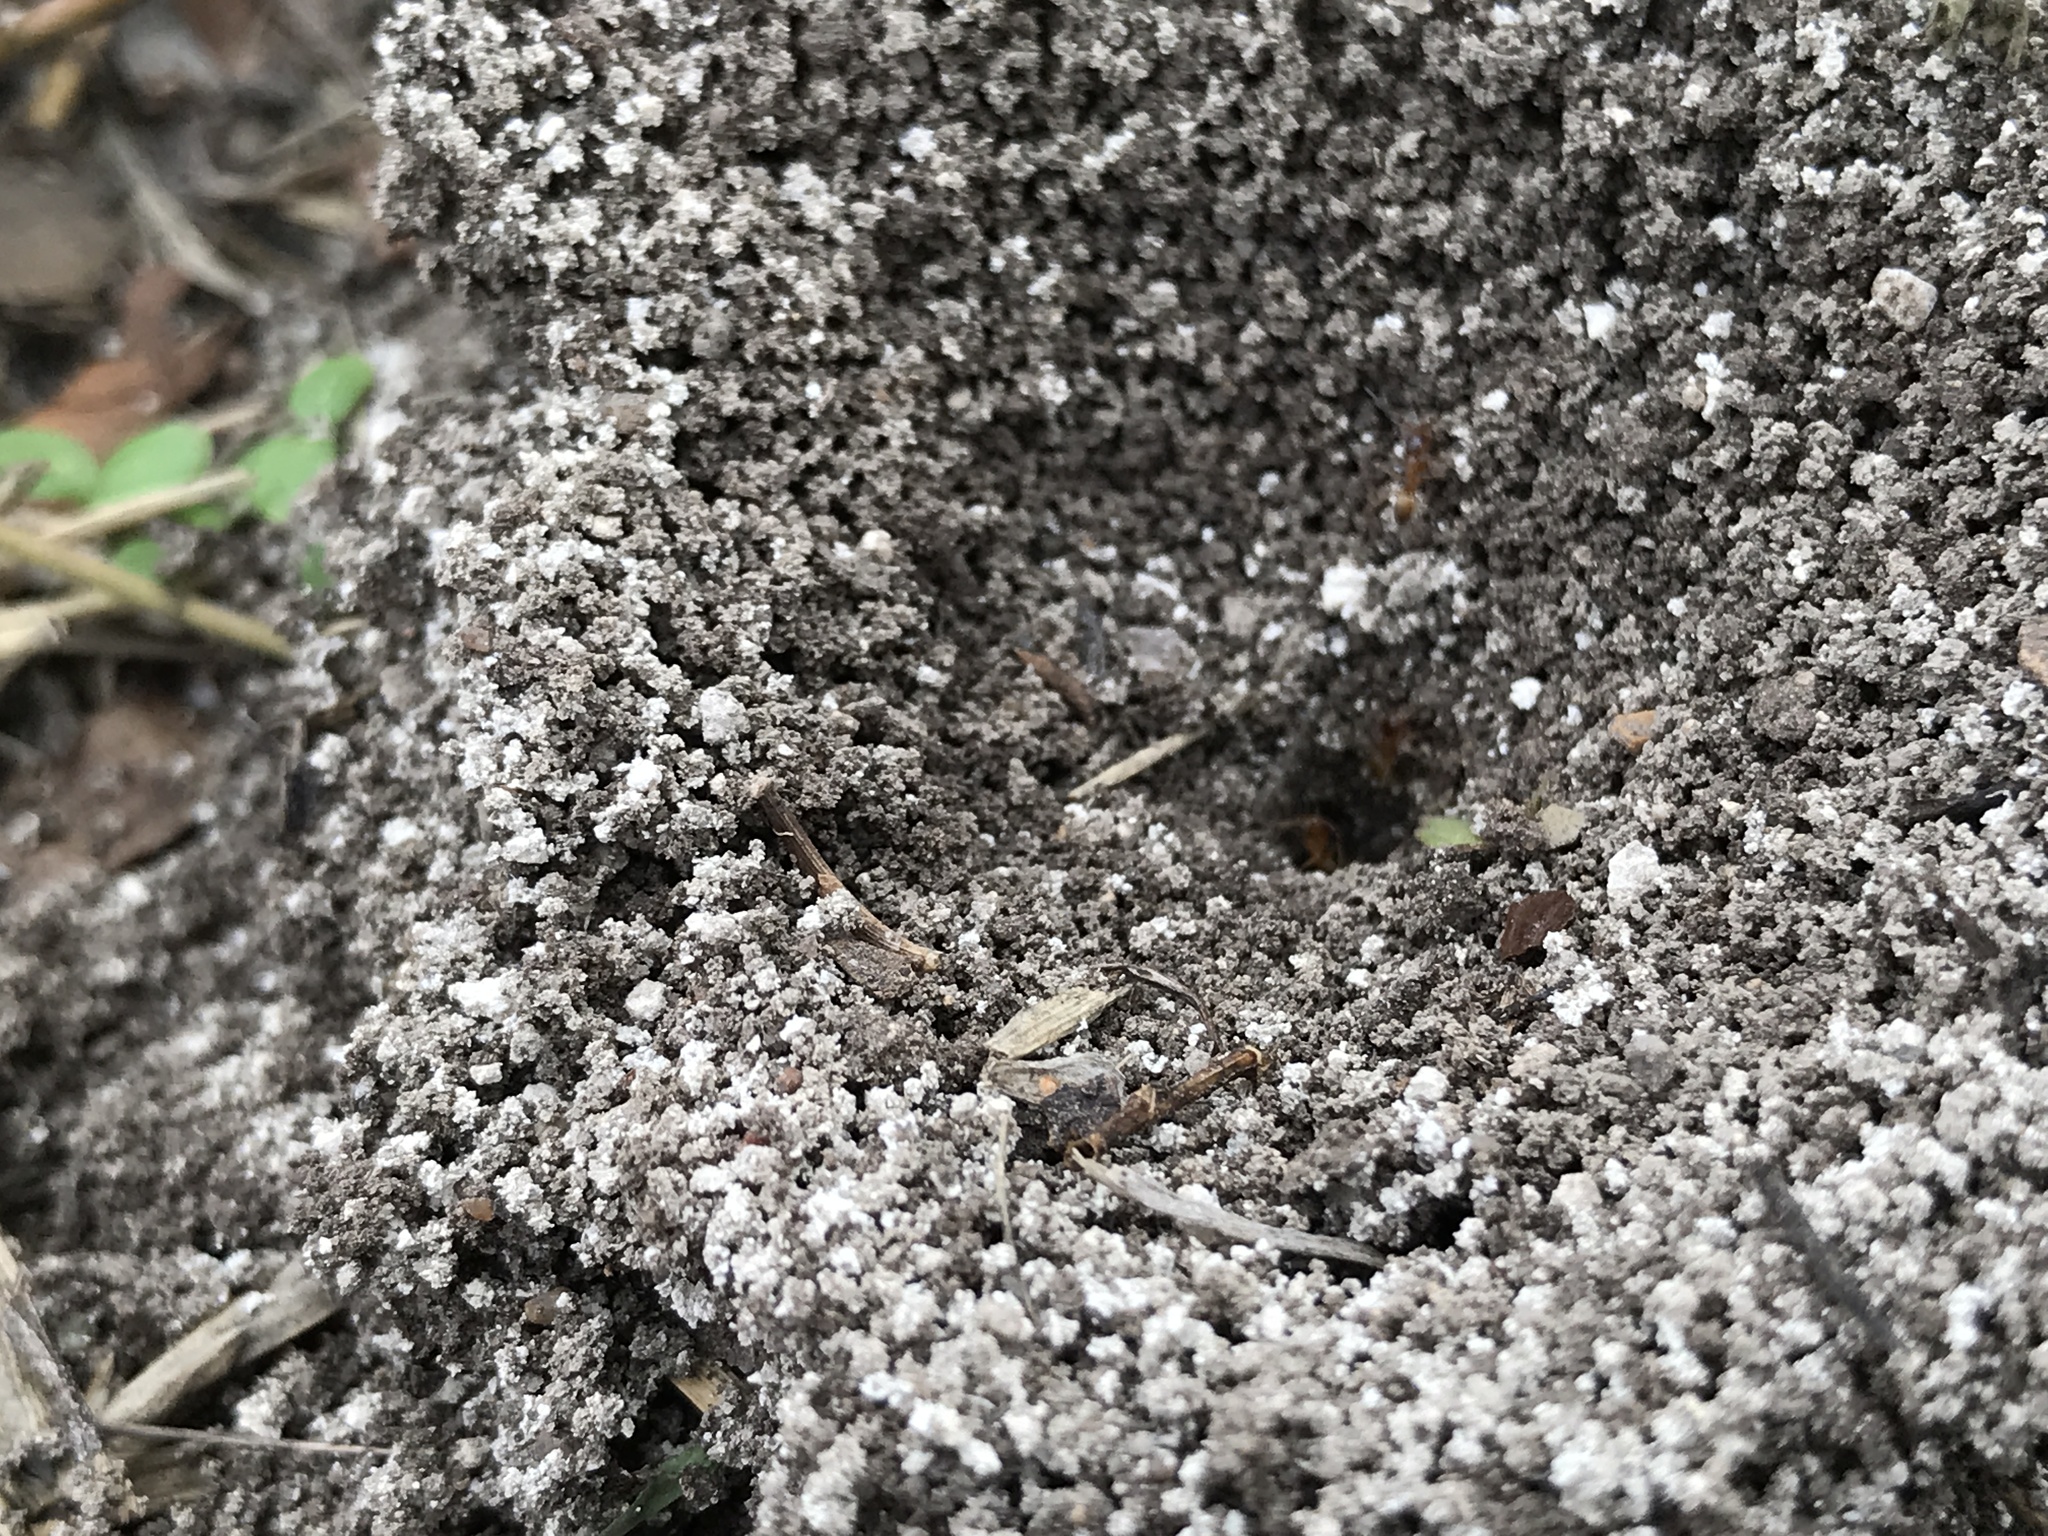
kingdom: Animalia
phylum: Arthropoda
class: Insecta
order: Hymenoptera
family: Formicidae
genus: Dorymyrmex
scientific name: Dorymyrmex flavus
